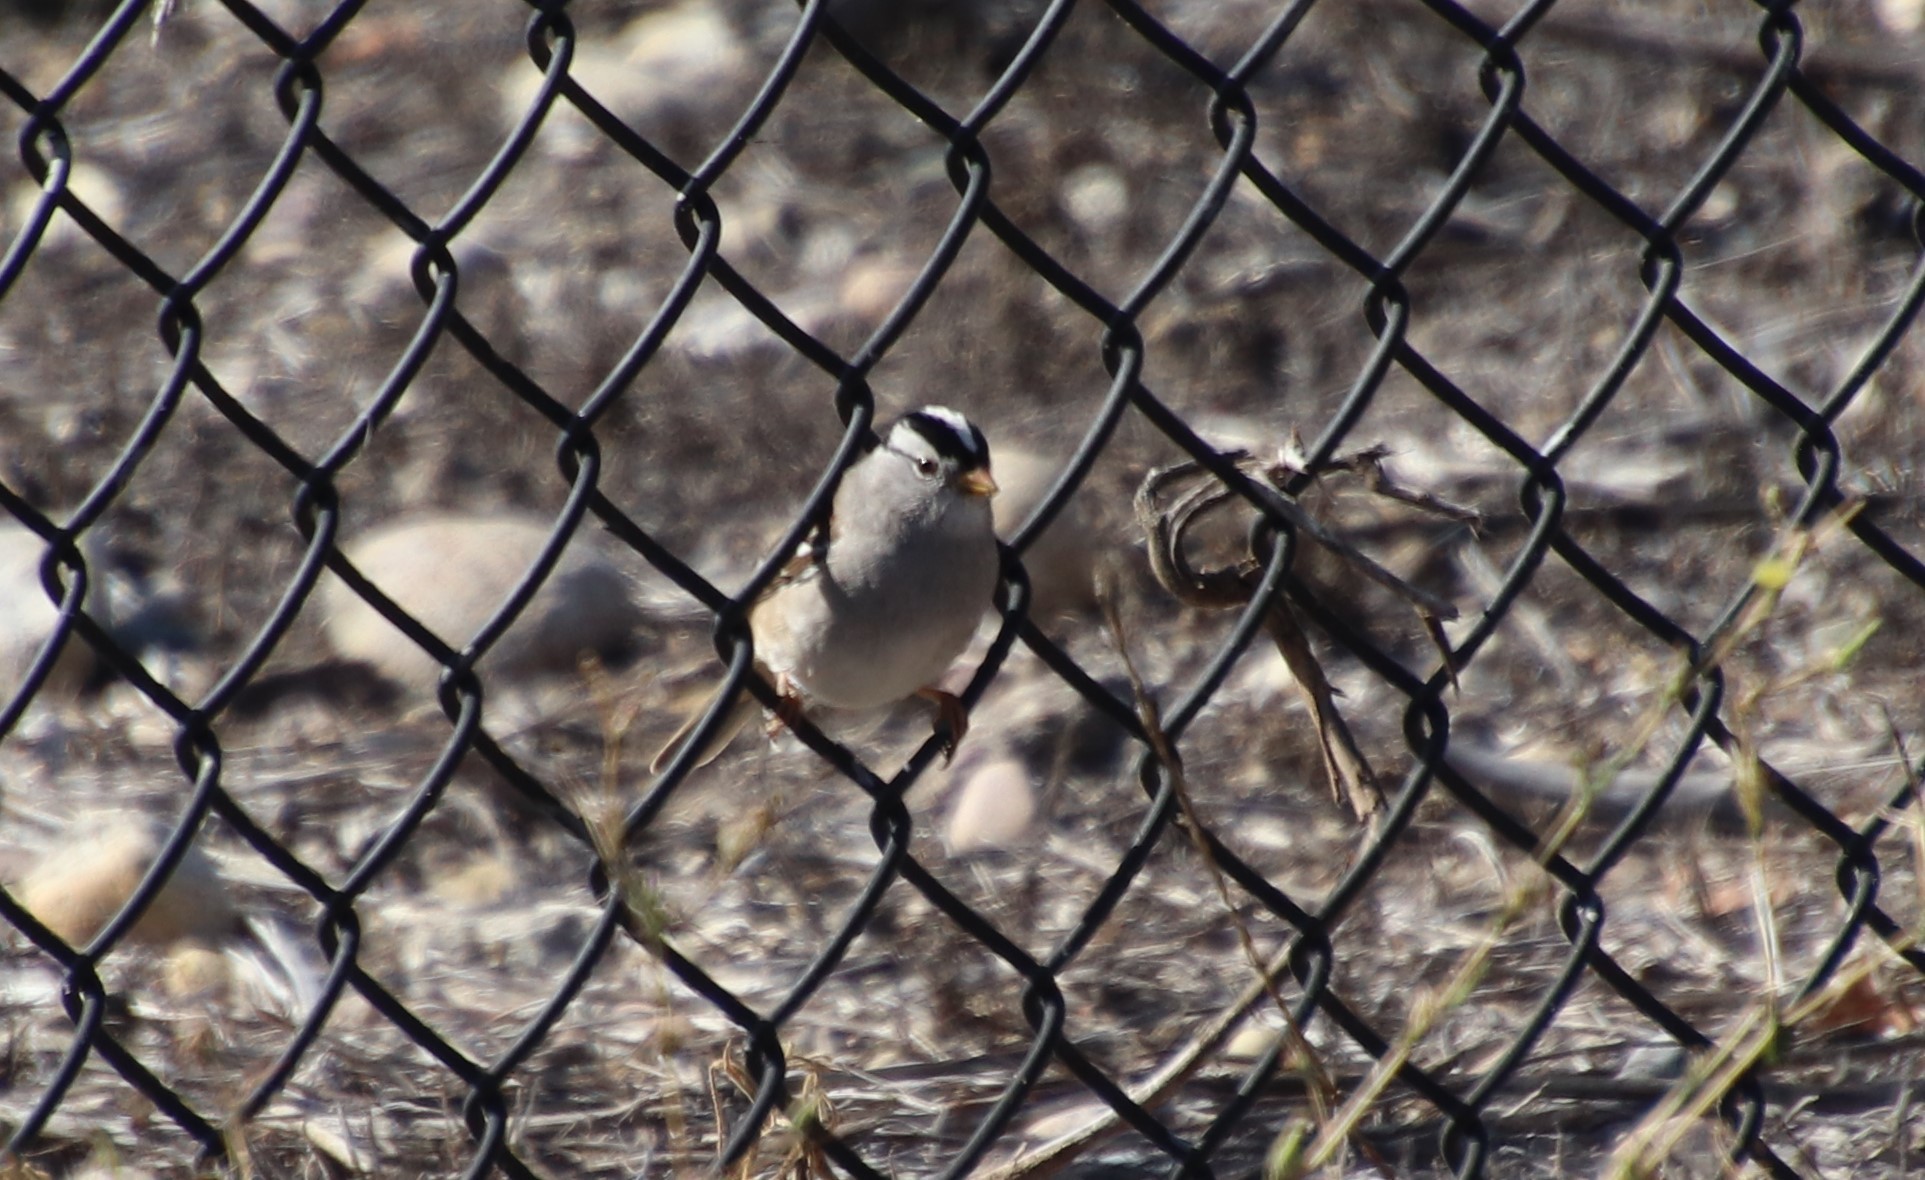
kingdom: Animalia
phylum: Chordata
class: Aves
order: Passeriformes
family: Passerellidae
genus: Zonotrichia
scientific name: Zonotrichia leucophrys
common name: White-crowned sparrow
